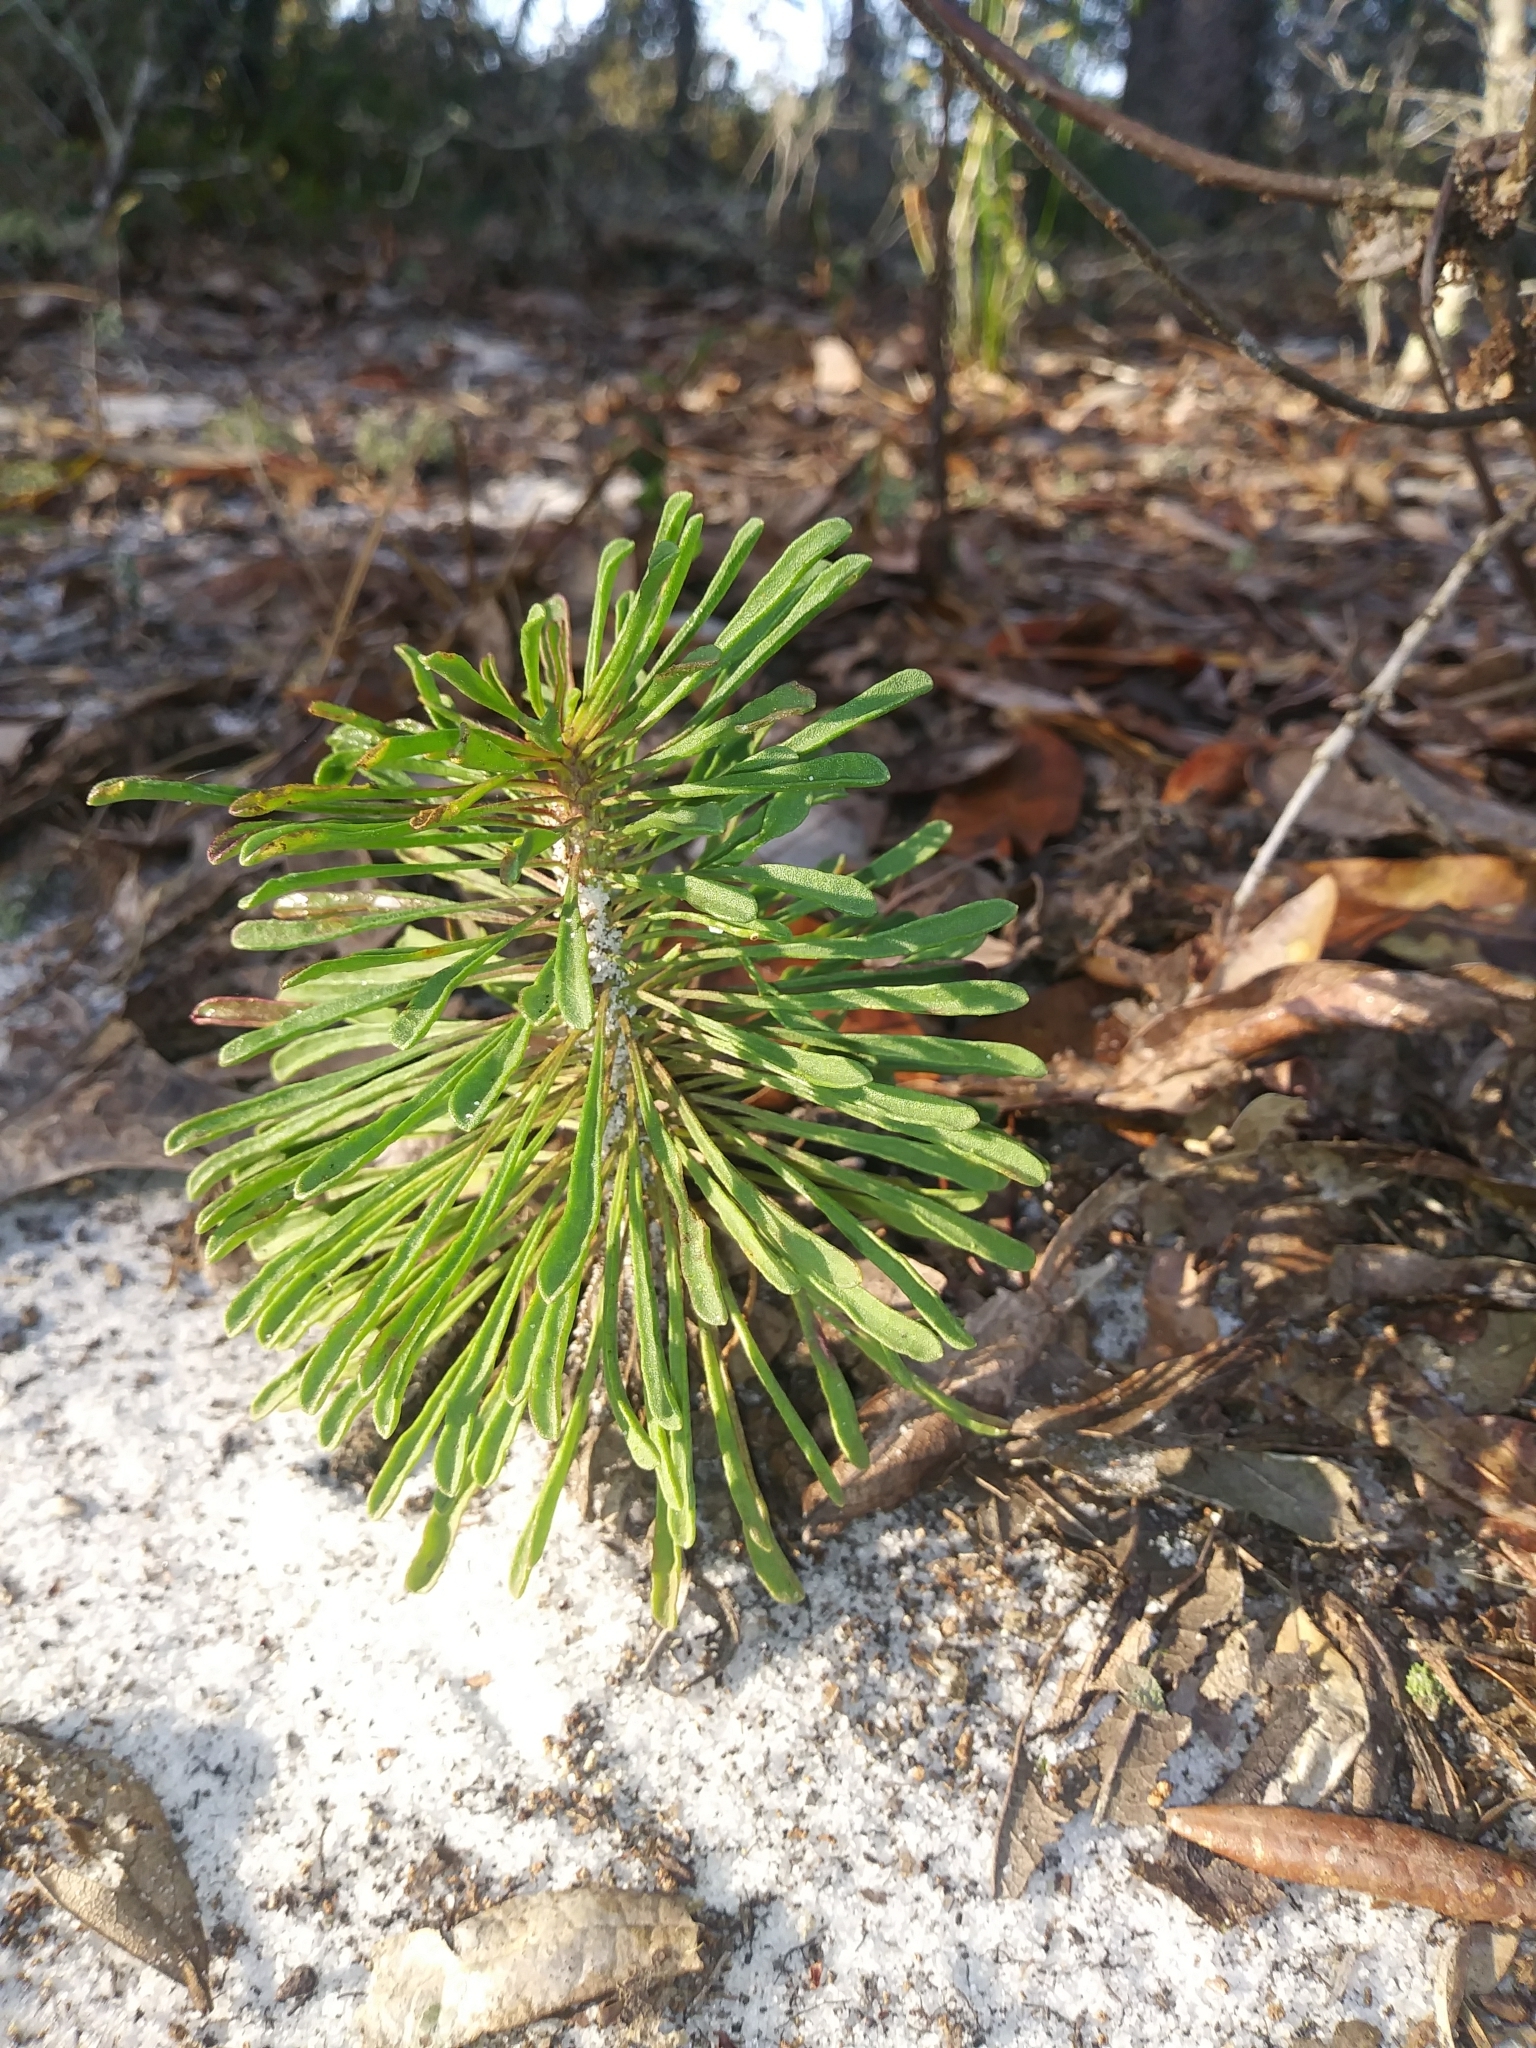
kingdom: Plantae
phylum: Tracheophyta
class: Magnoliopsida
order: Asterales
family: Asteraceae
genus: Balduina
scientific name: Balduina angustifolia
